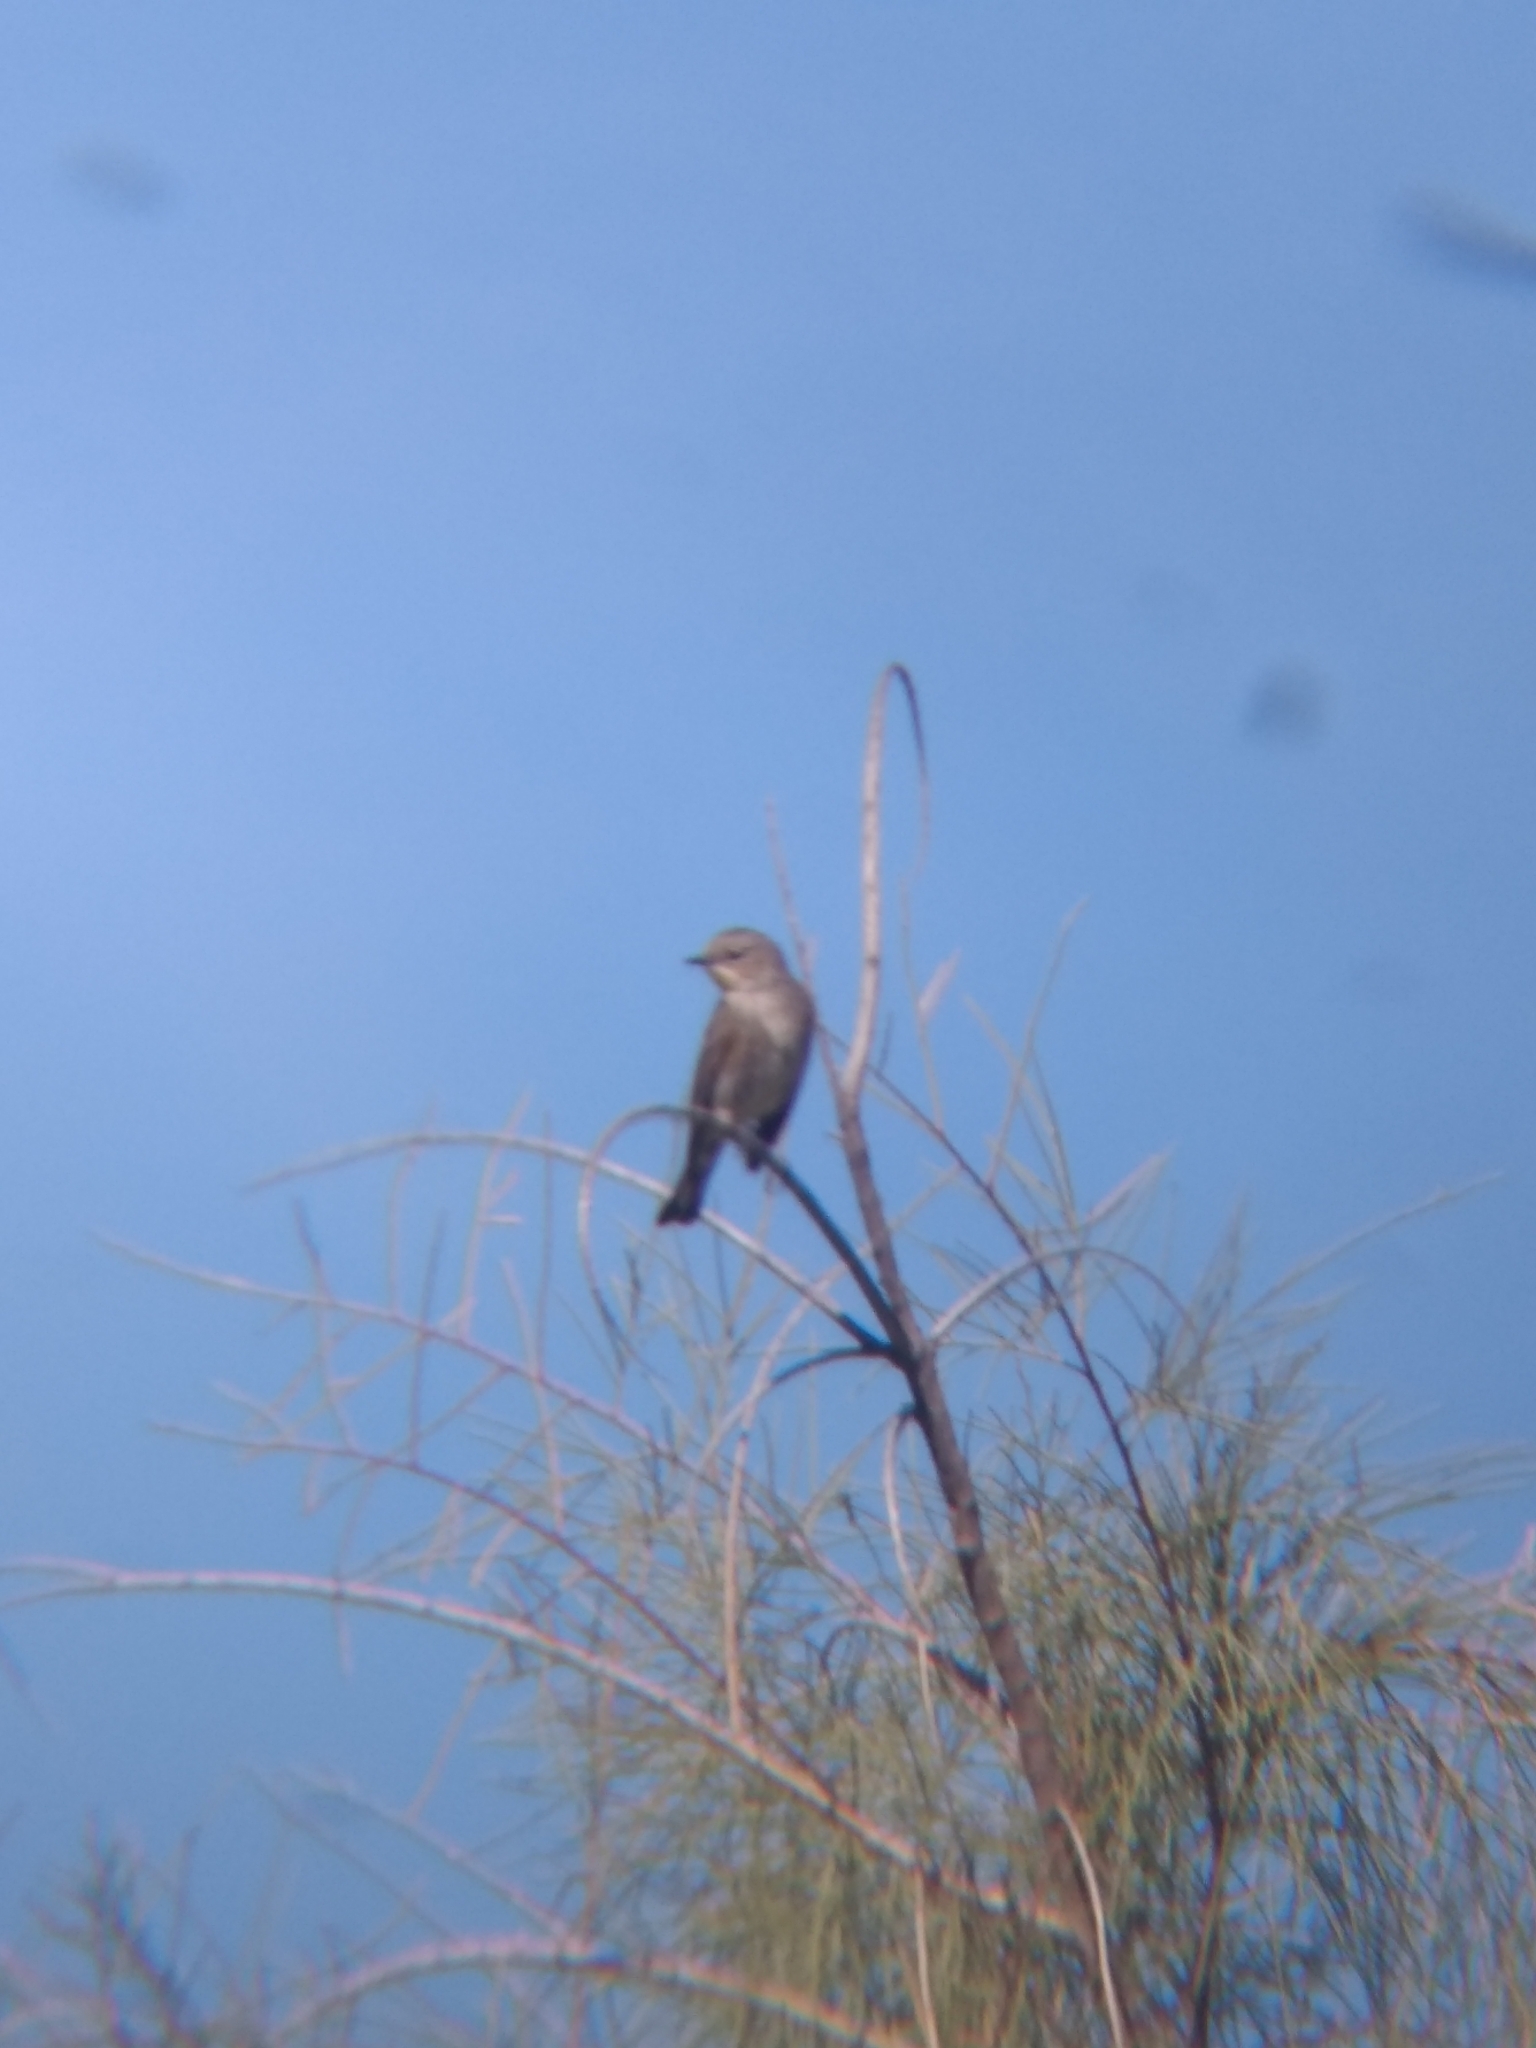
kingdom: Animalia
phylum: Chordata
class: Aves
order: Passeriformes
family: Parulidae
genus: Setophaga
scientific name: Setophaga coronata
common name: Myrtle warbler
